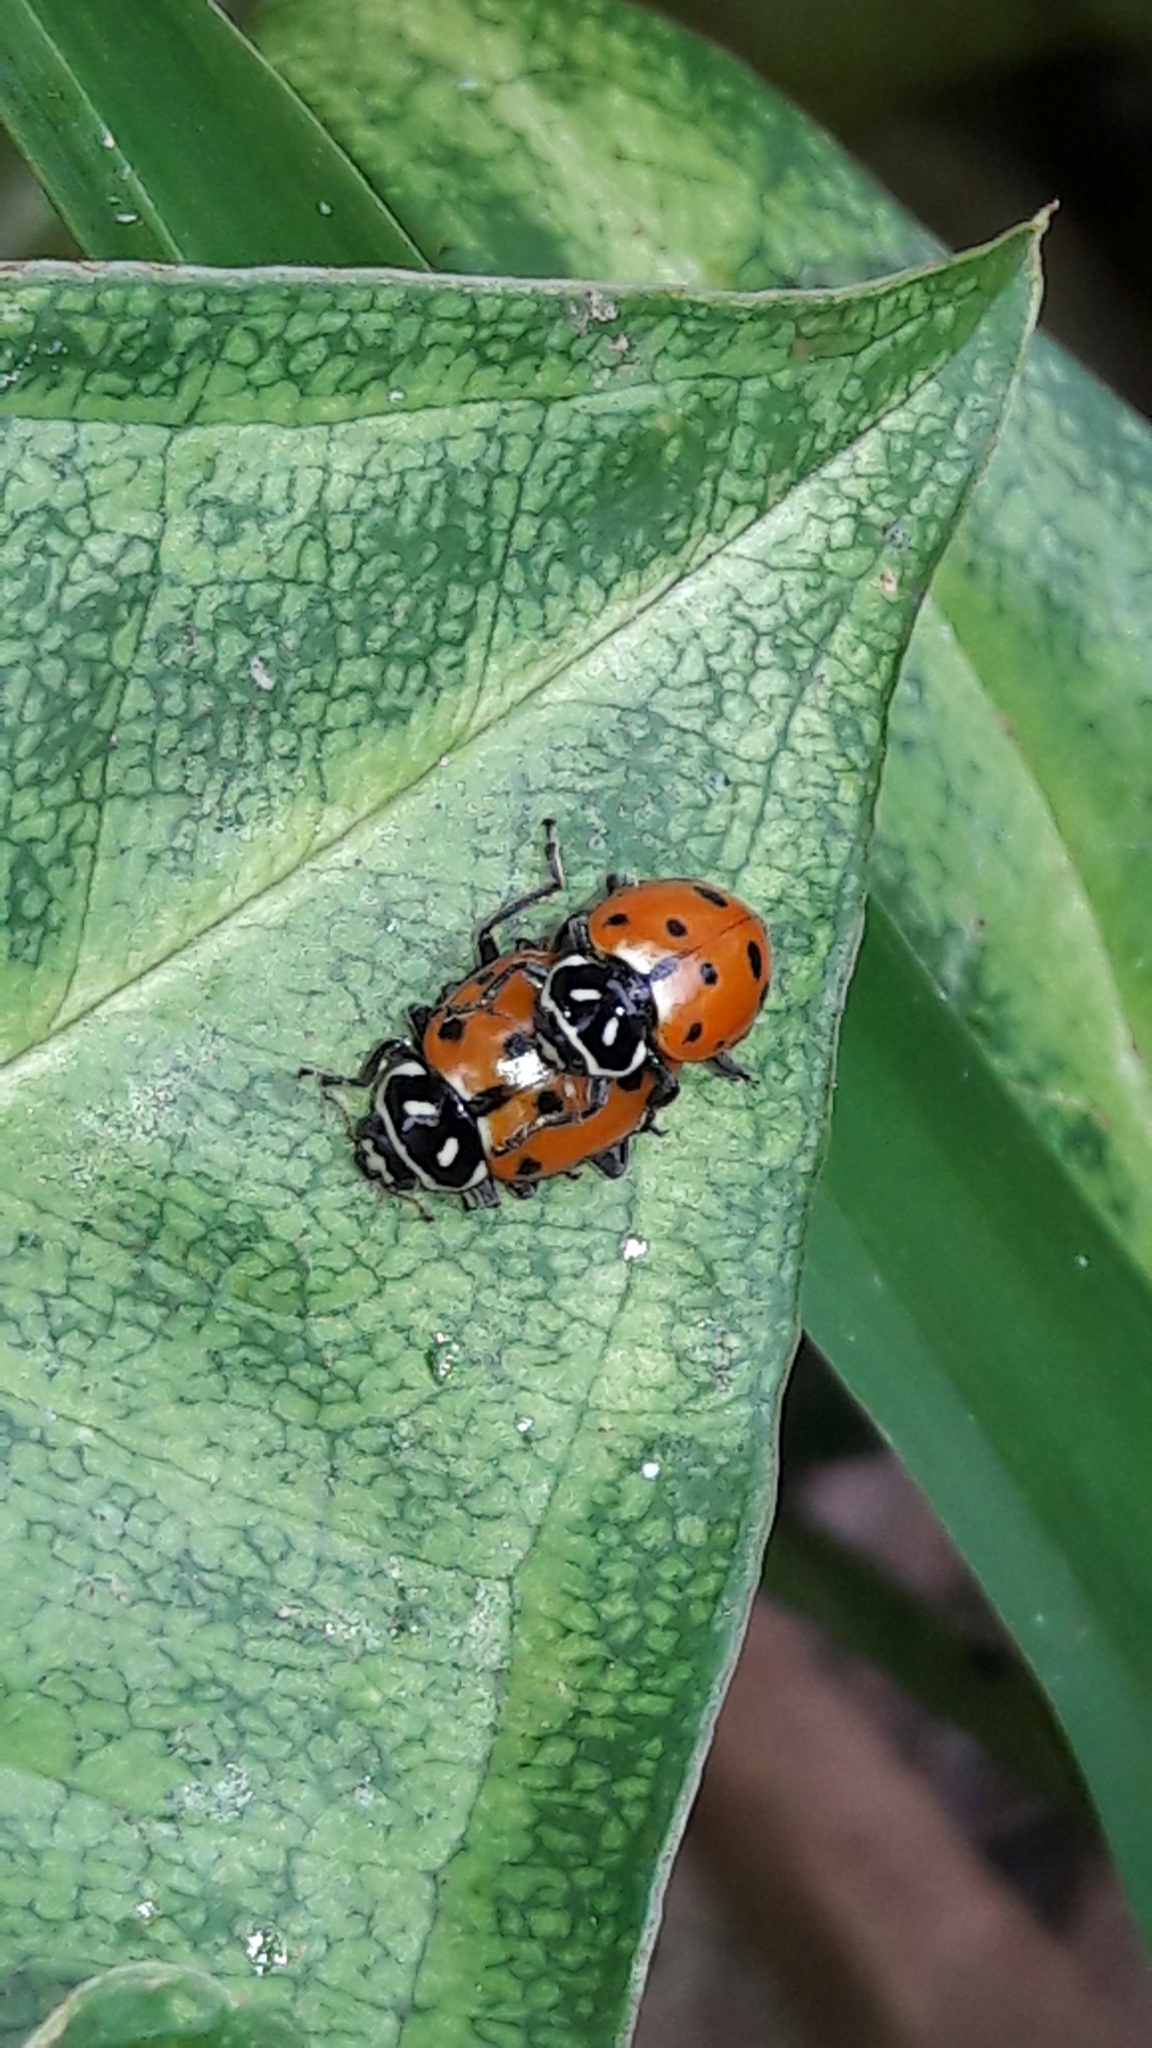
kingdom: Animalia
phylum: Arthropoda
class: Insecta
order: Coleoptera
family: Coccinellidae
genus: Hippodamia
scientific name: Hippodamia convergens
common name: Convergent lady beetle
